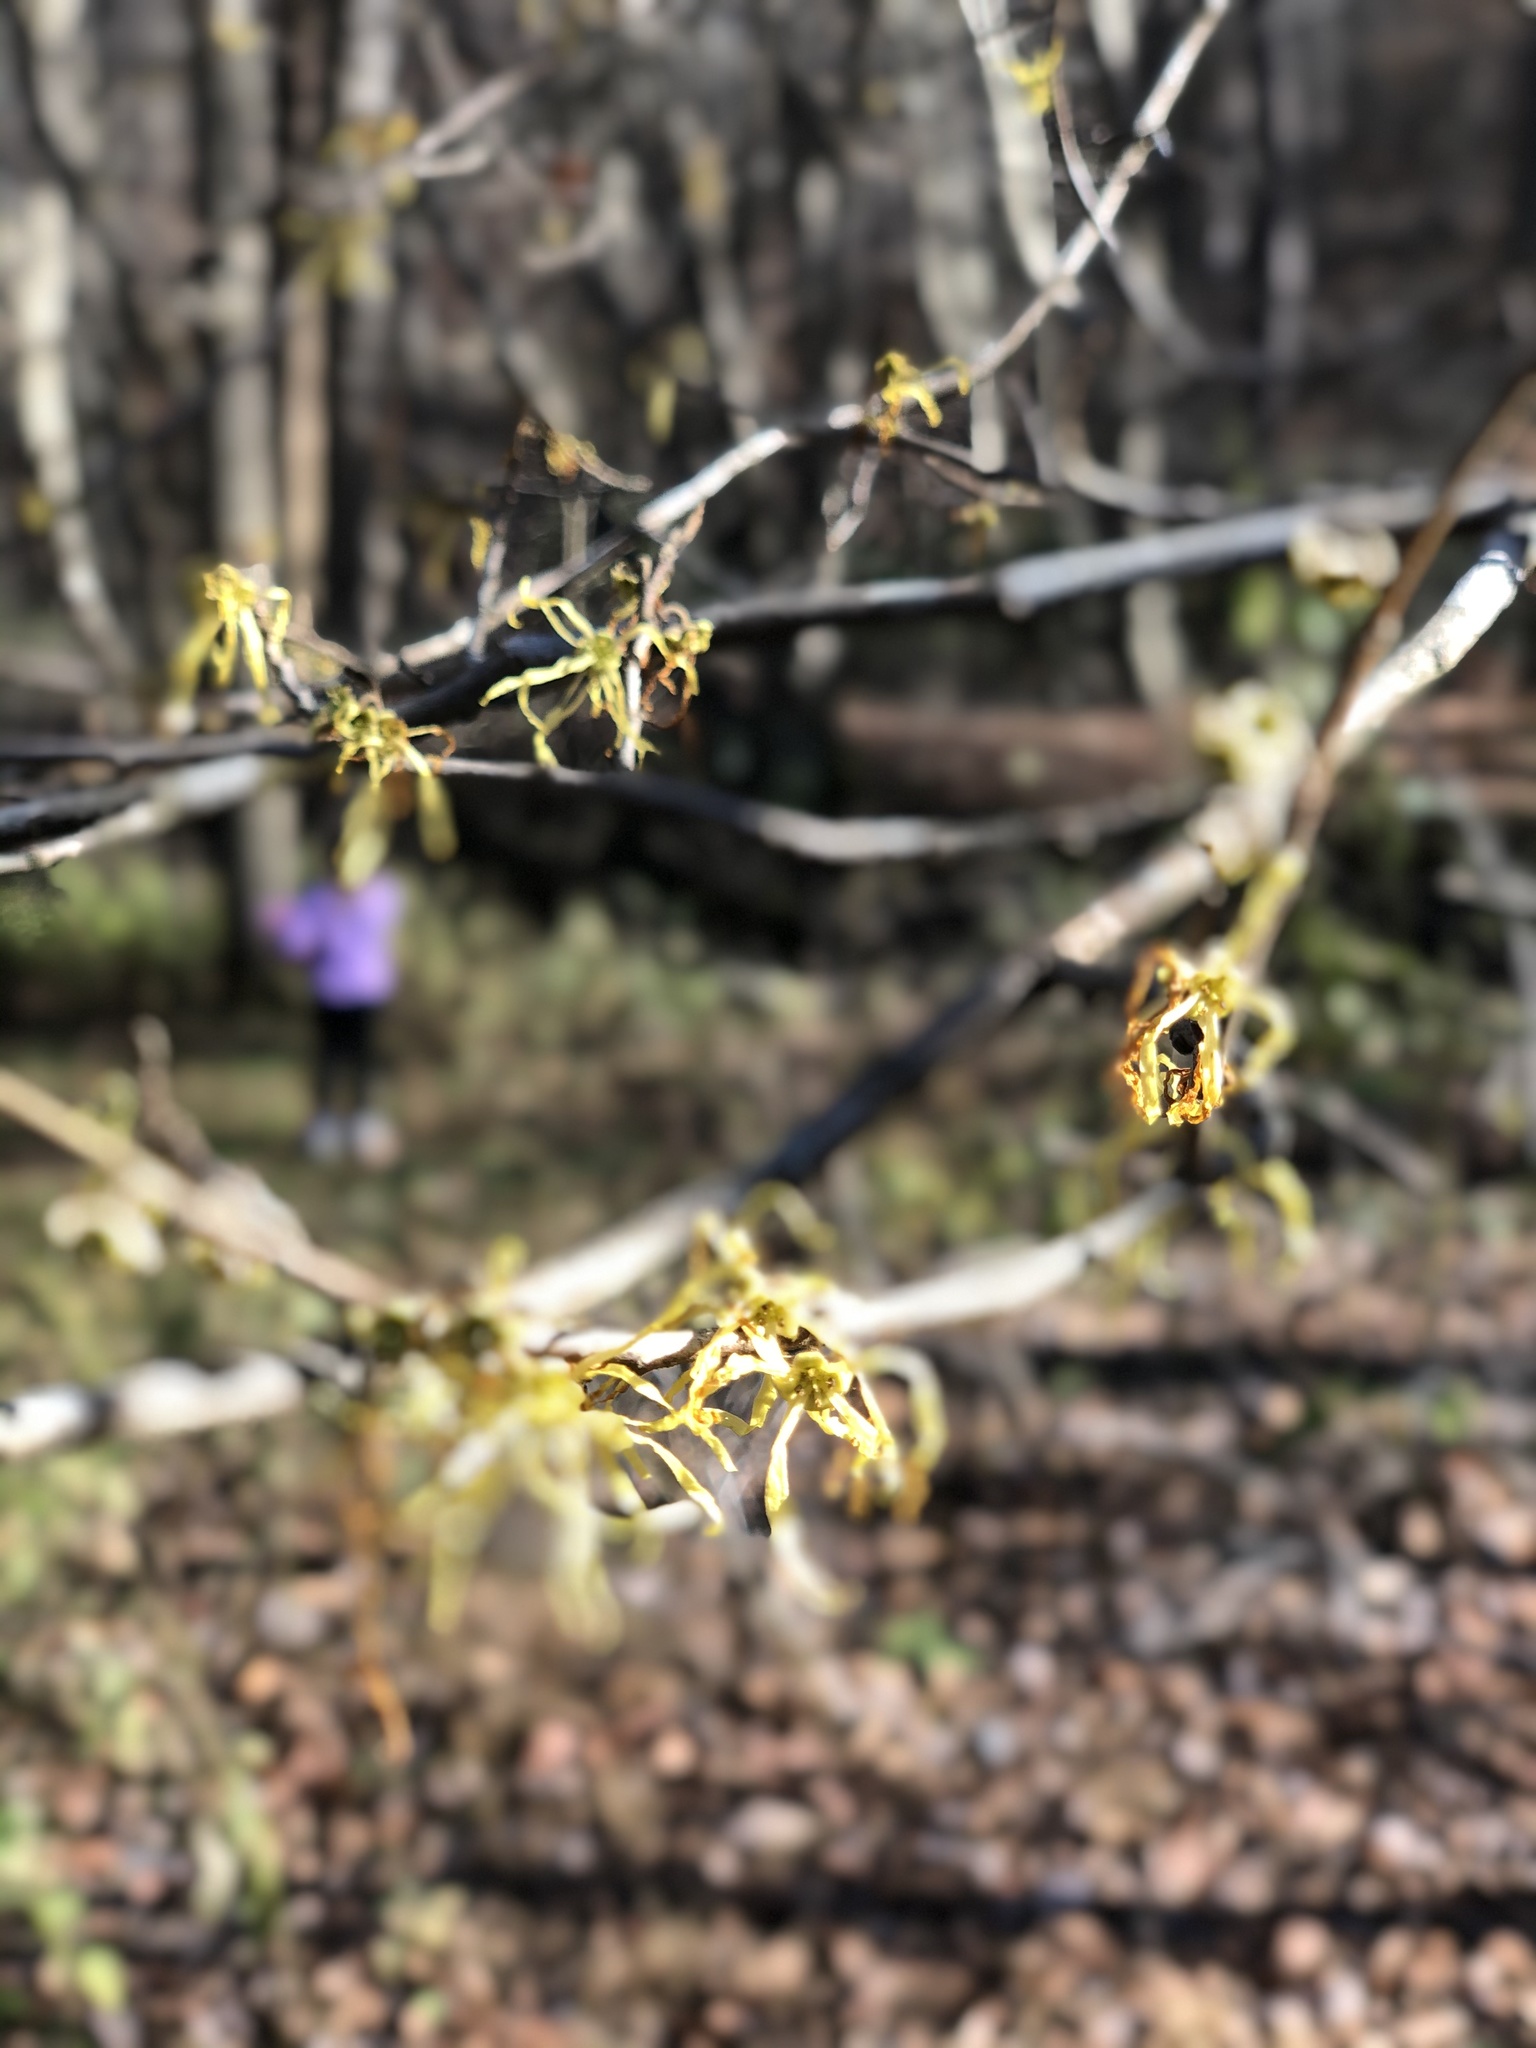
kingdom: Plantae
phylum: Tracheophyta
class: Magnoliopsida
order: Saxifragales
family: Hamamelidaceae
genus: Hamamelis
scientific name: Hamamelis virginiana
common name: Witch-hazel
